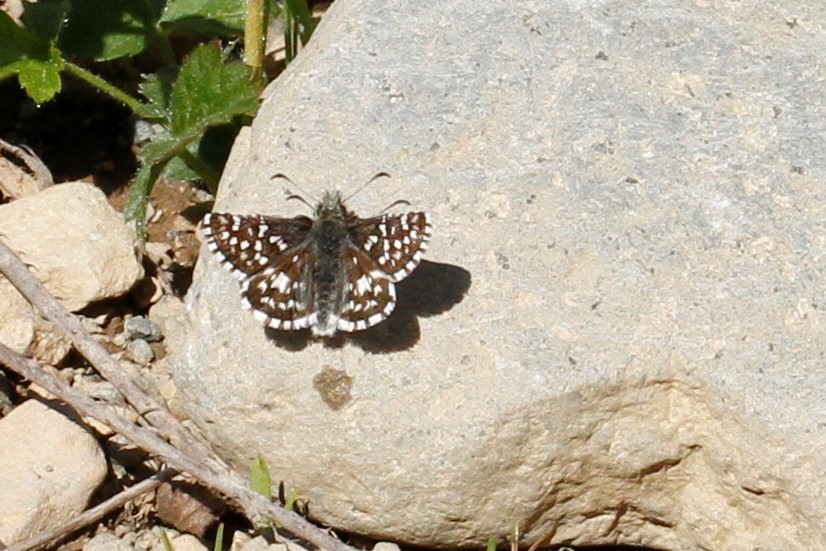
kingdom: Animalia
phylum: Arthropoda
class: Insecta
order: Lepidoptera
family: Hesperiidae
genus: Pyrgus
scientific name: Pyrgus ruralis
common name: Two-banded checkered-skipper
